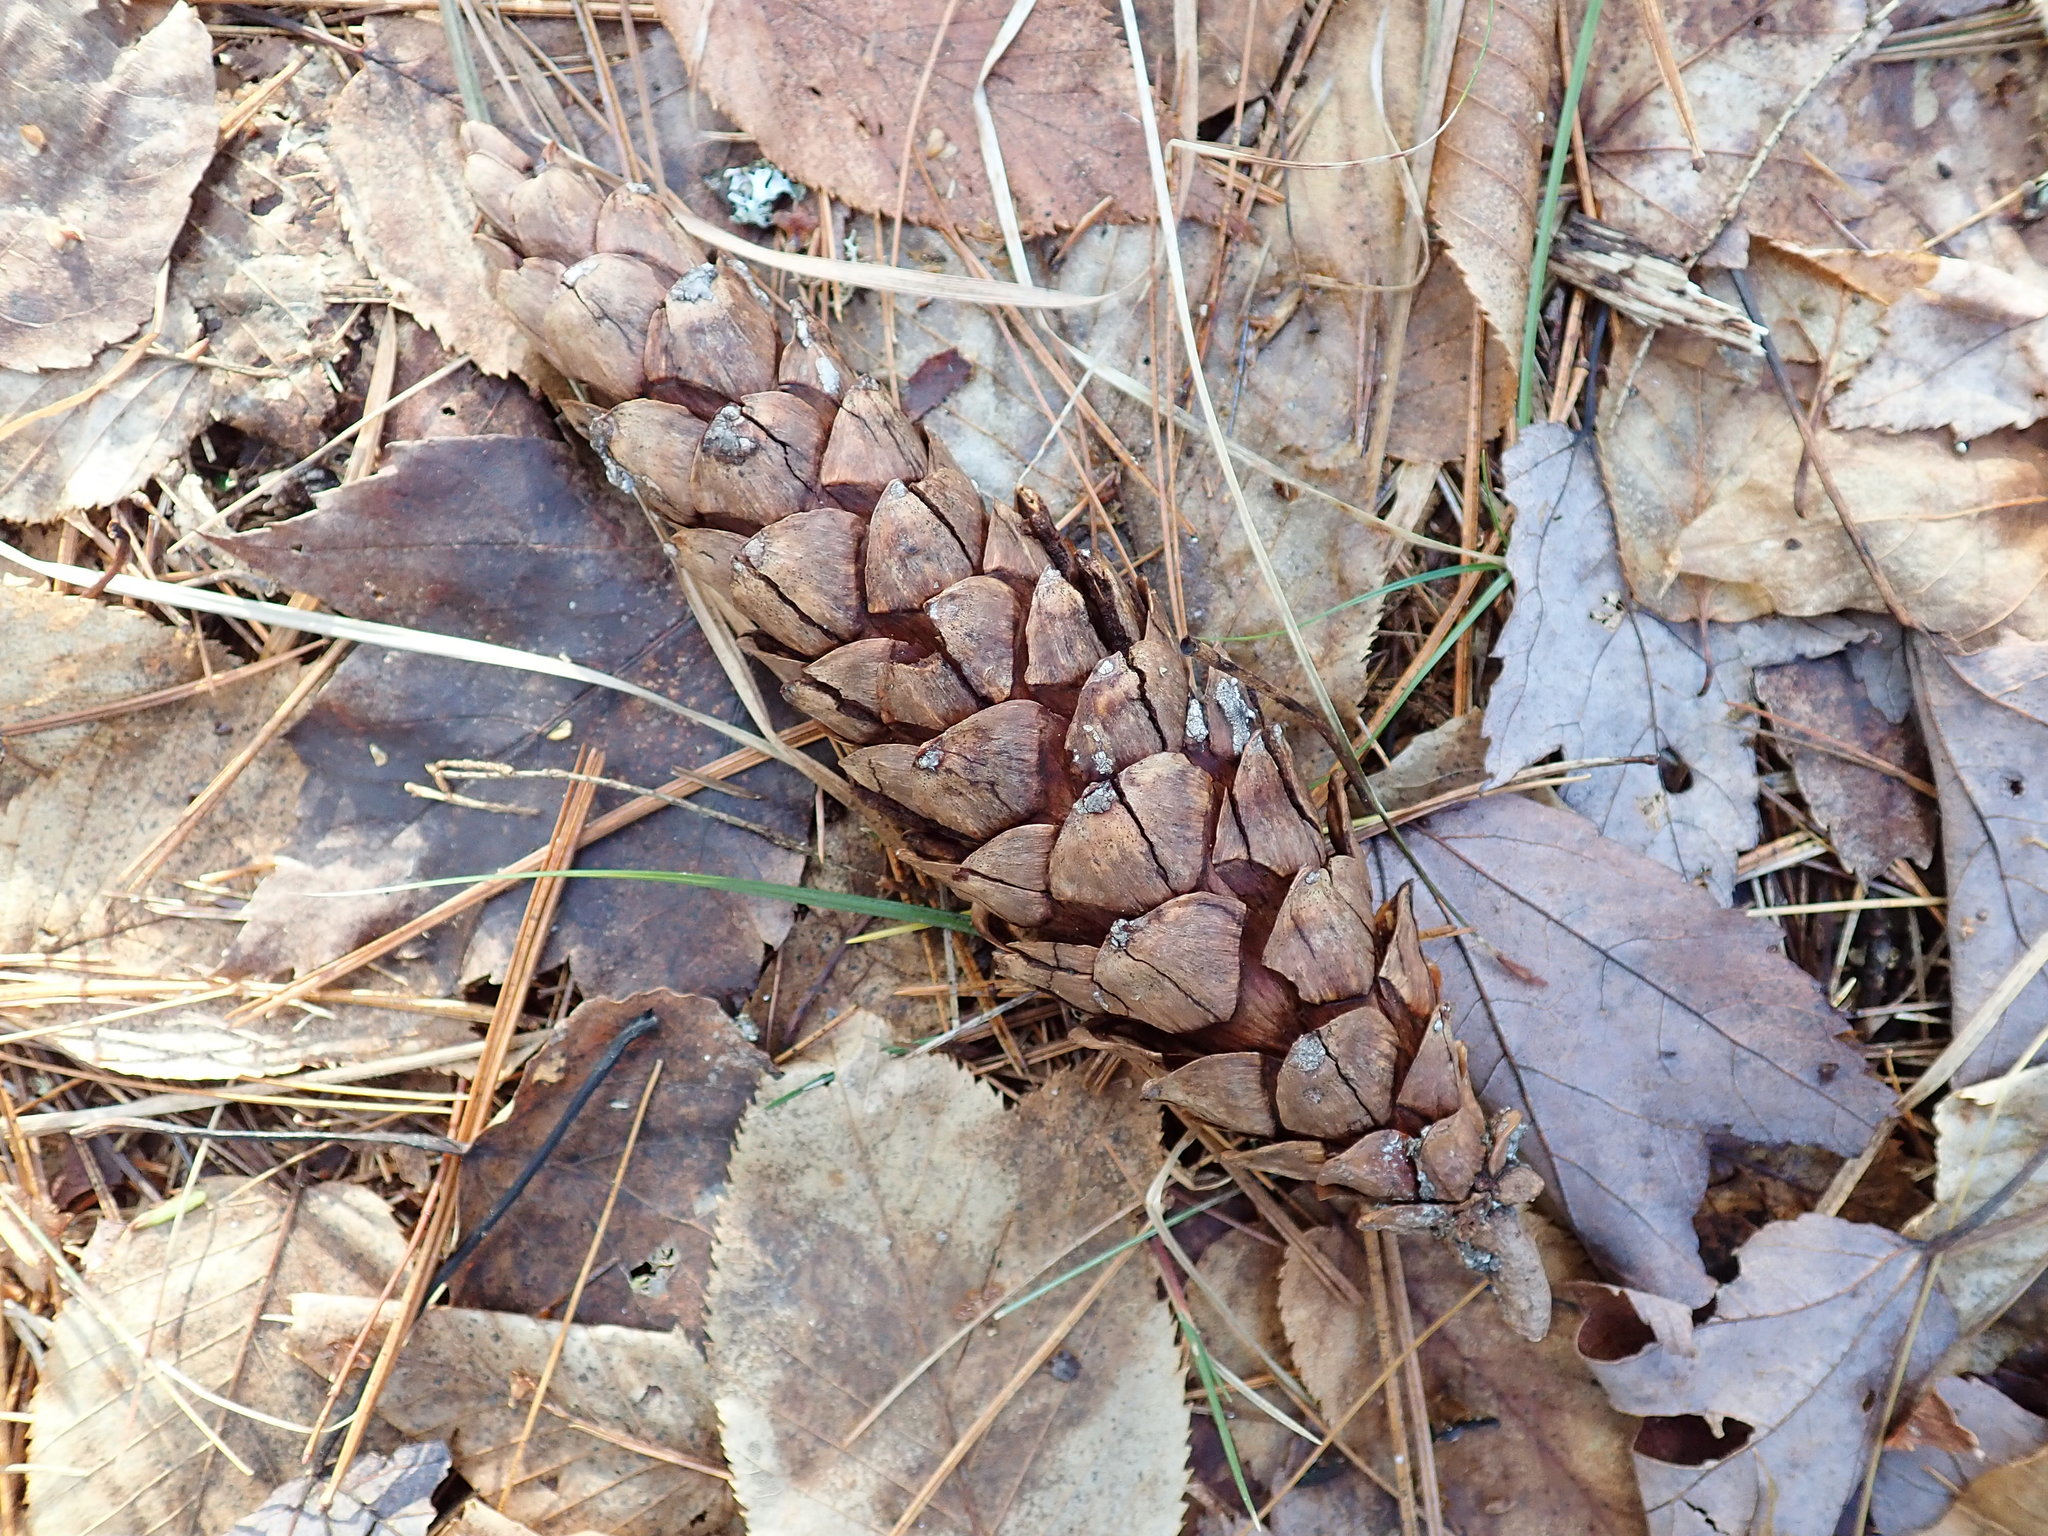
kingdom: Plantae
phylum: Tracheophyta
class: Pinopsida
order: Pinales
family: Pinaceae
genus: Pinus
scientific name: Pinus strobus
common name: Weymouth pine
